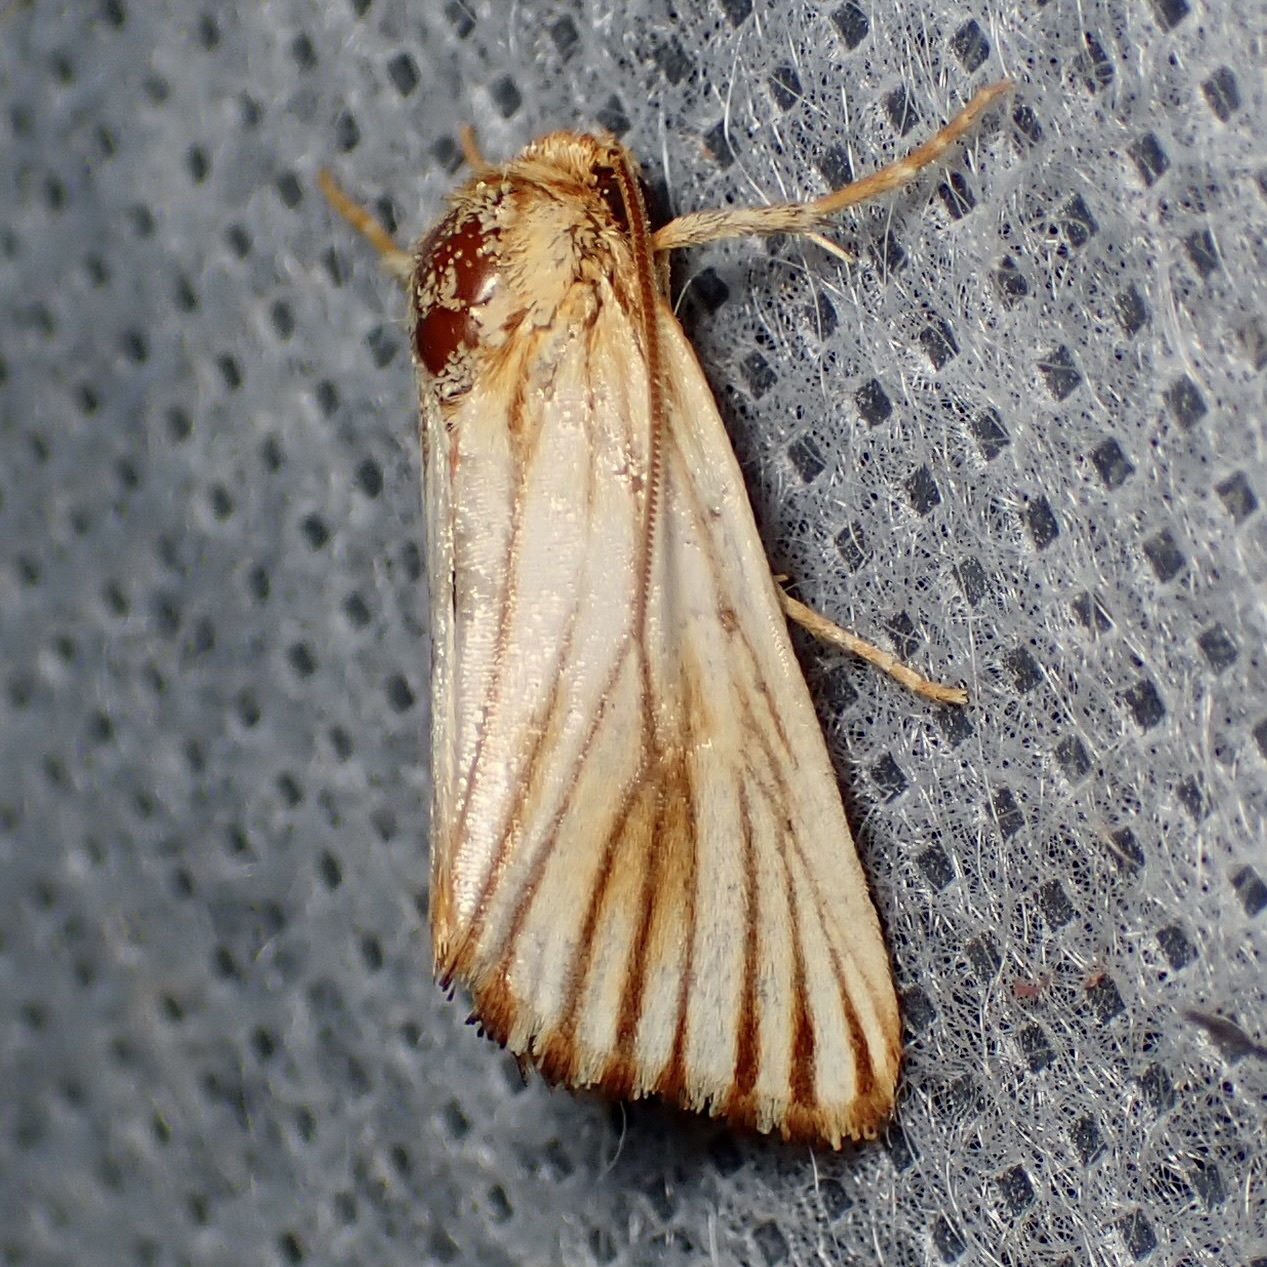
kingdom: Animalia
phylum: Arthropoda
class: Insecta
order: Lepidoptera
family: Noctuidae
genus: Antaplaga
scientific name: Antaplaga discistriga
